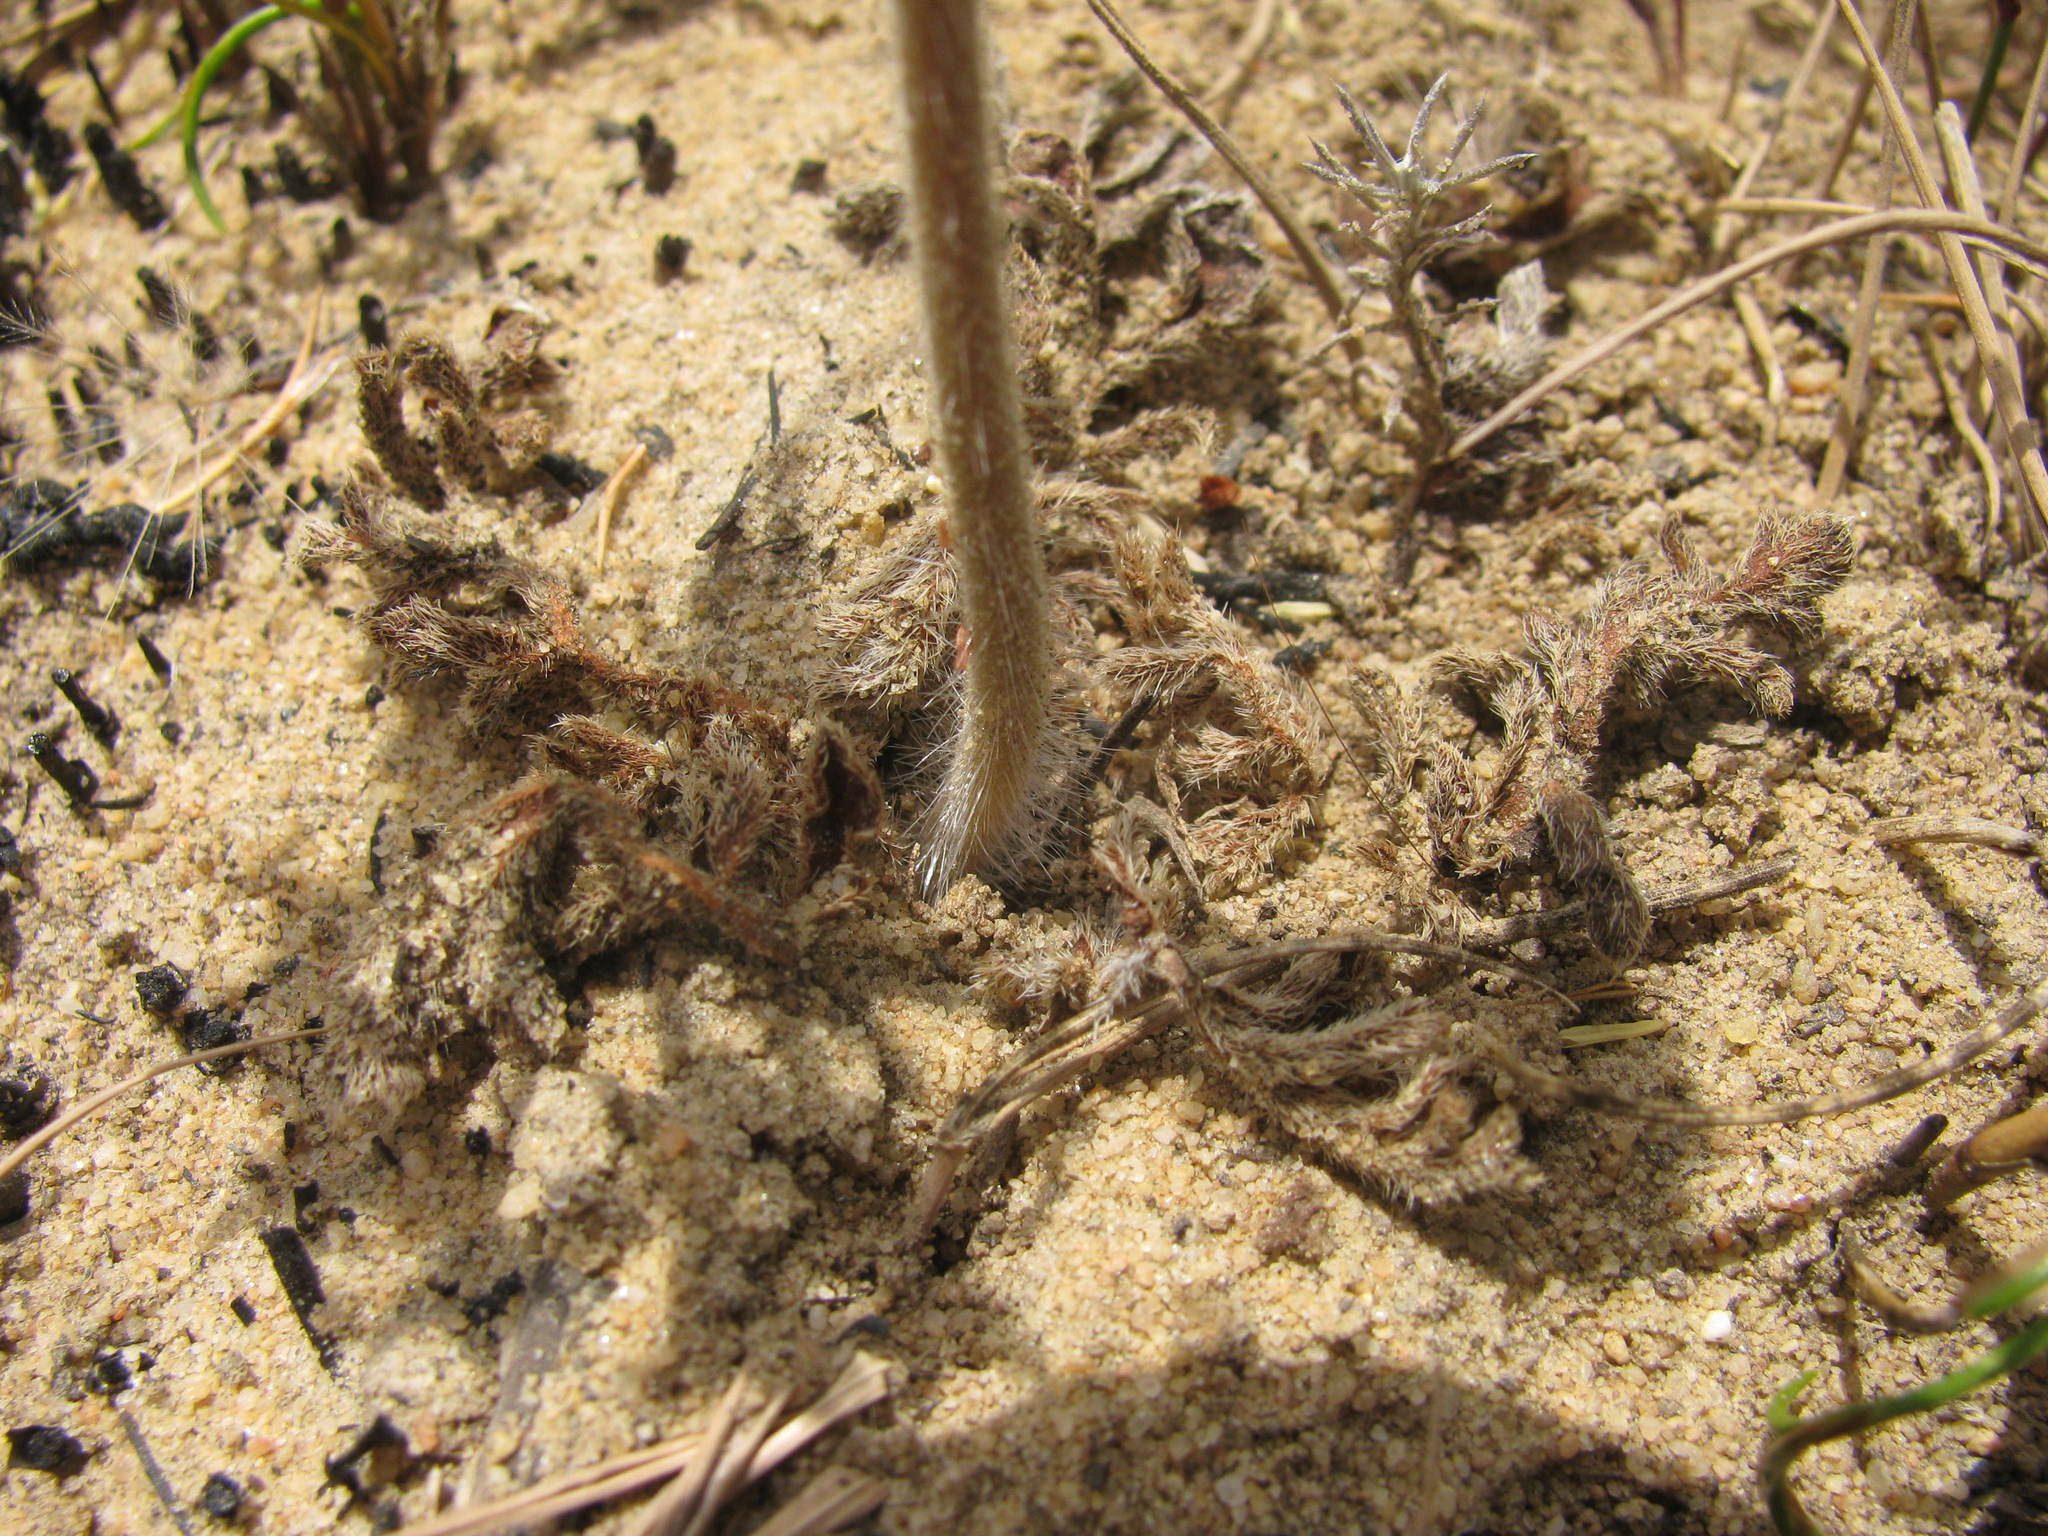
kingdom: Plantae
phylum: Tracheophyta
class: Magnoliopsida
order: Geraniales
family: Geraniaceae
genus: Pelargonium
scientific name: Pelargonium auritum
